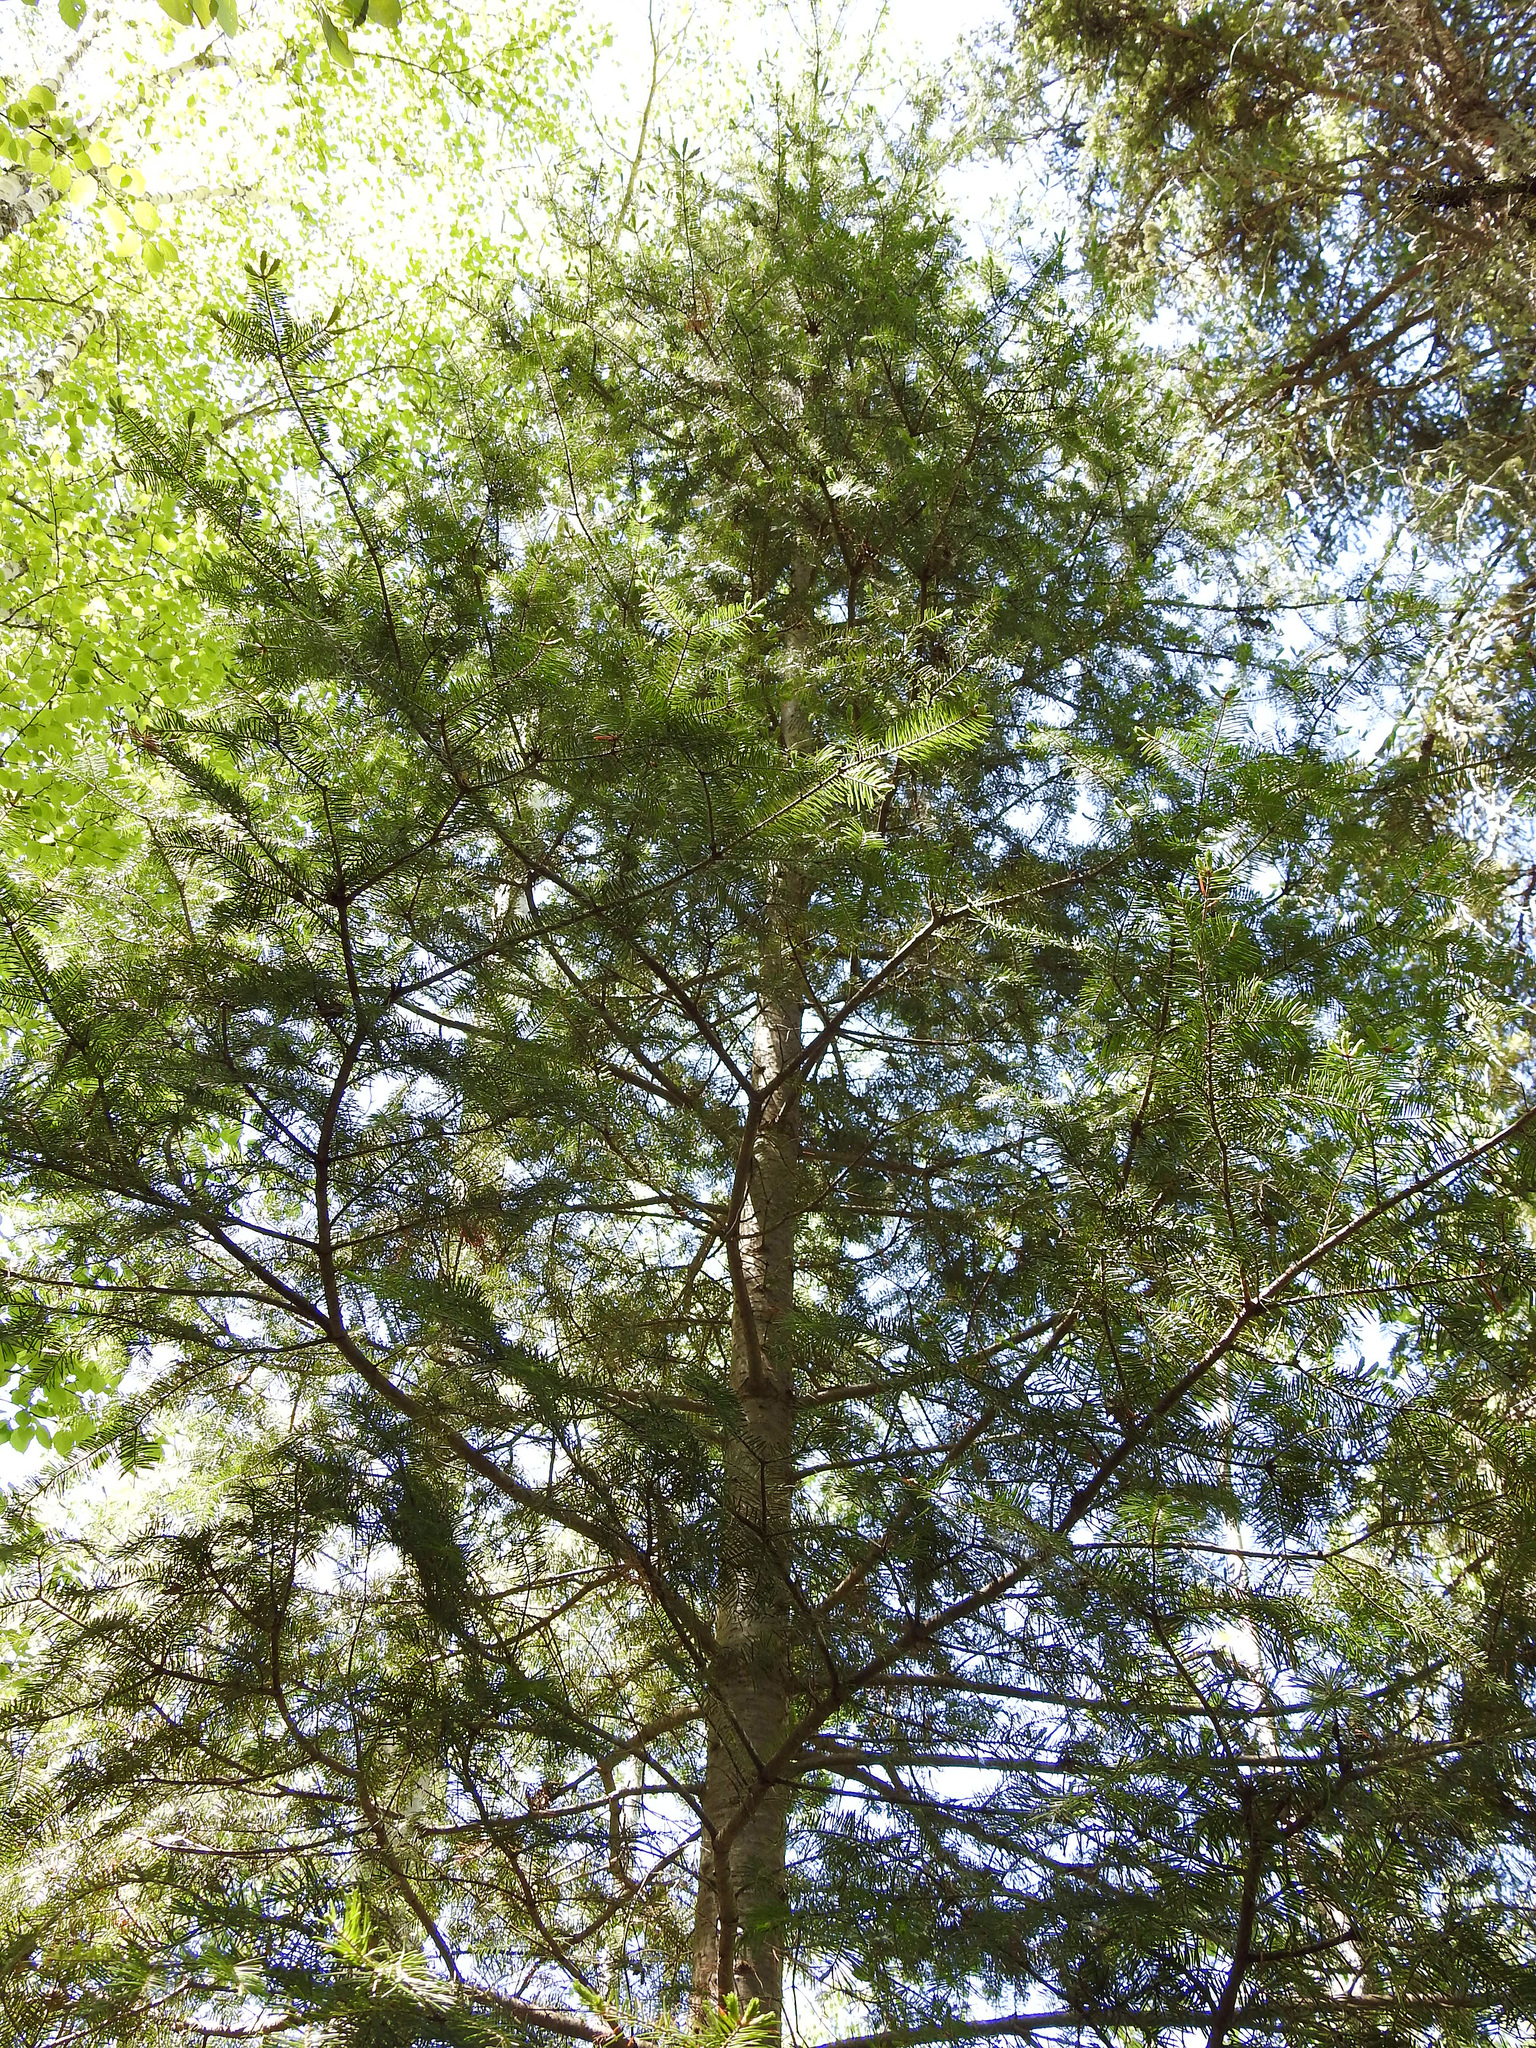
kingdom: Plantae
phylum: Tracheophyta
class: Pinopsida
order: Pinales
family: Pinaceae
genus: Abies
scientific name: Abies balsamea
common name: Balsam fir
